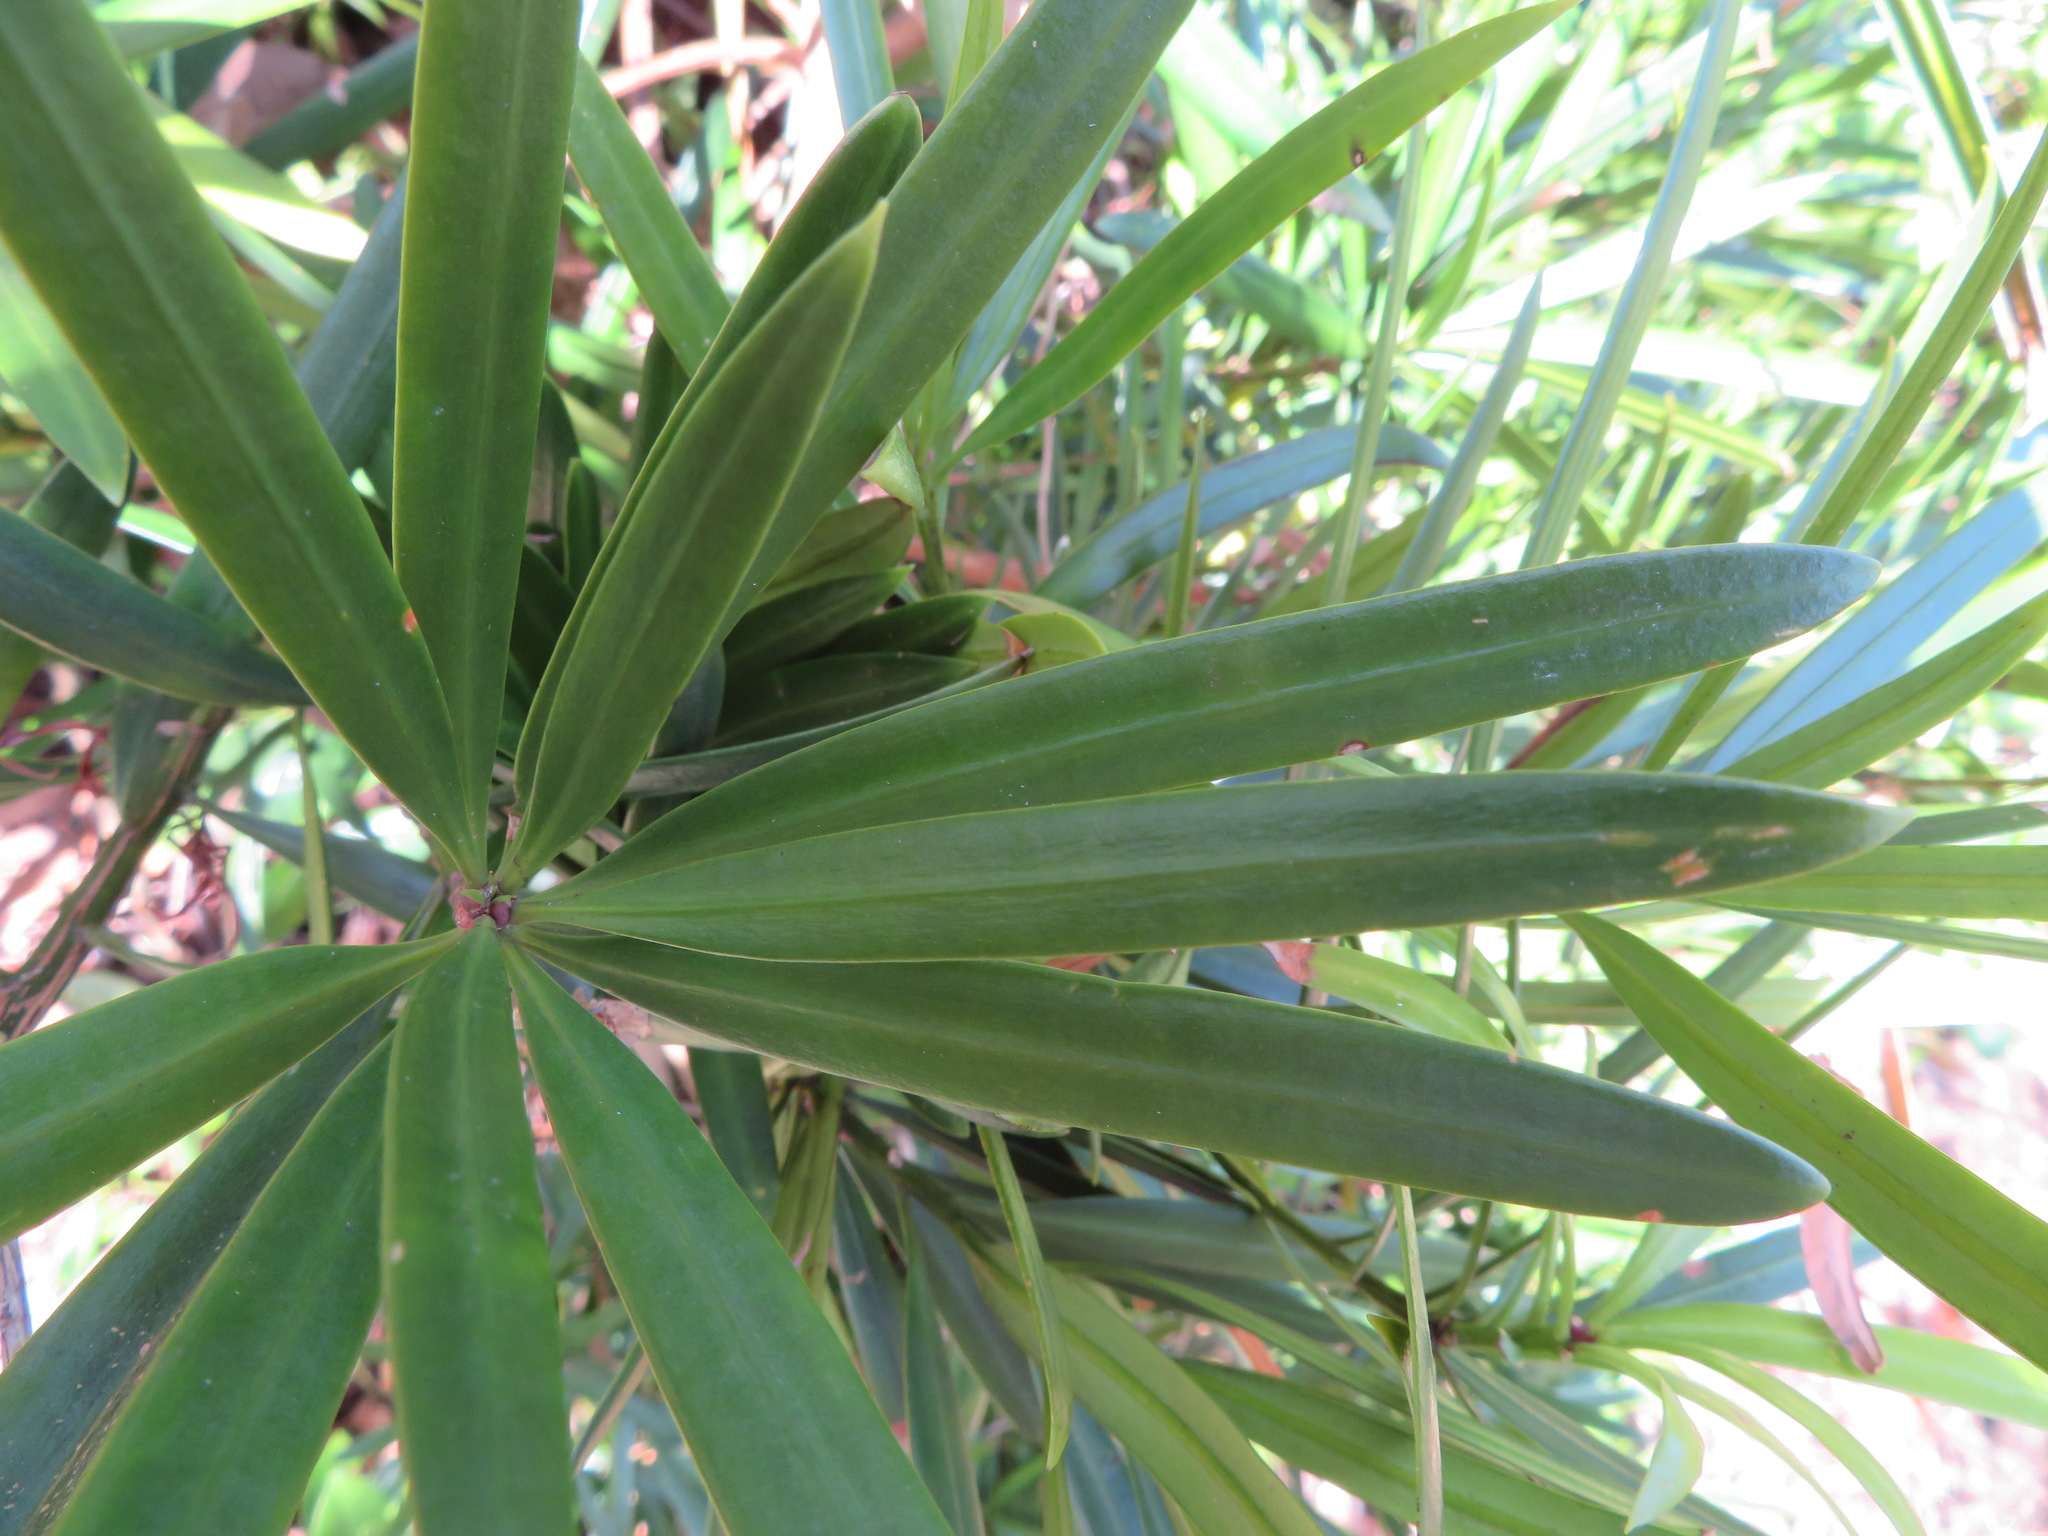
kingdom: Plantae
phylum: Tracheophyta
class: Pinopsida
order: Pinales
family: Podocarpaceae
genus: Podocarpus
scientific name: Podocarpus macrophyllus
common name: Japanese yew
